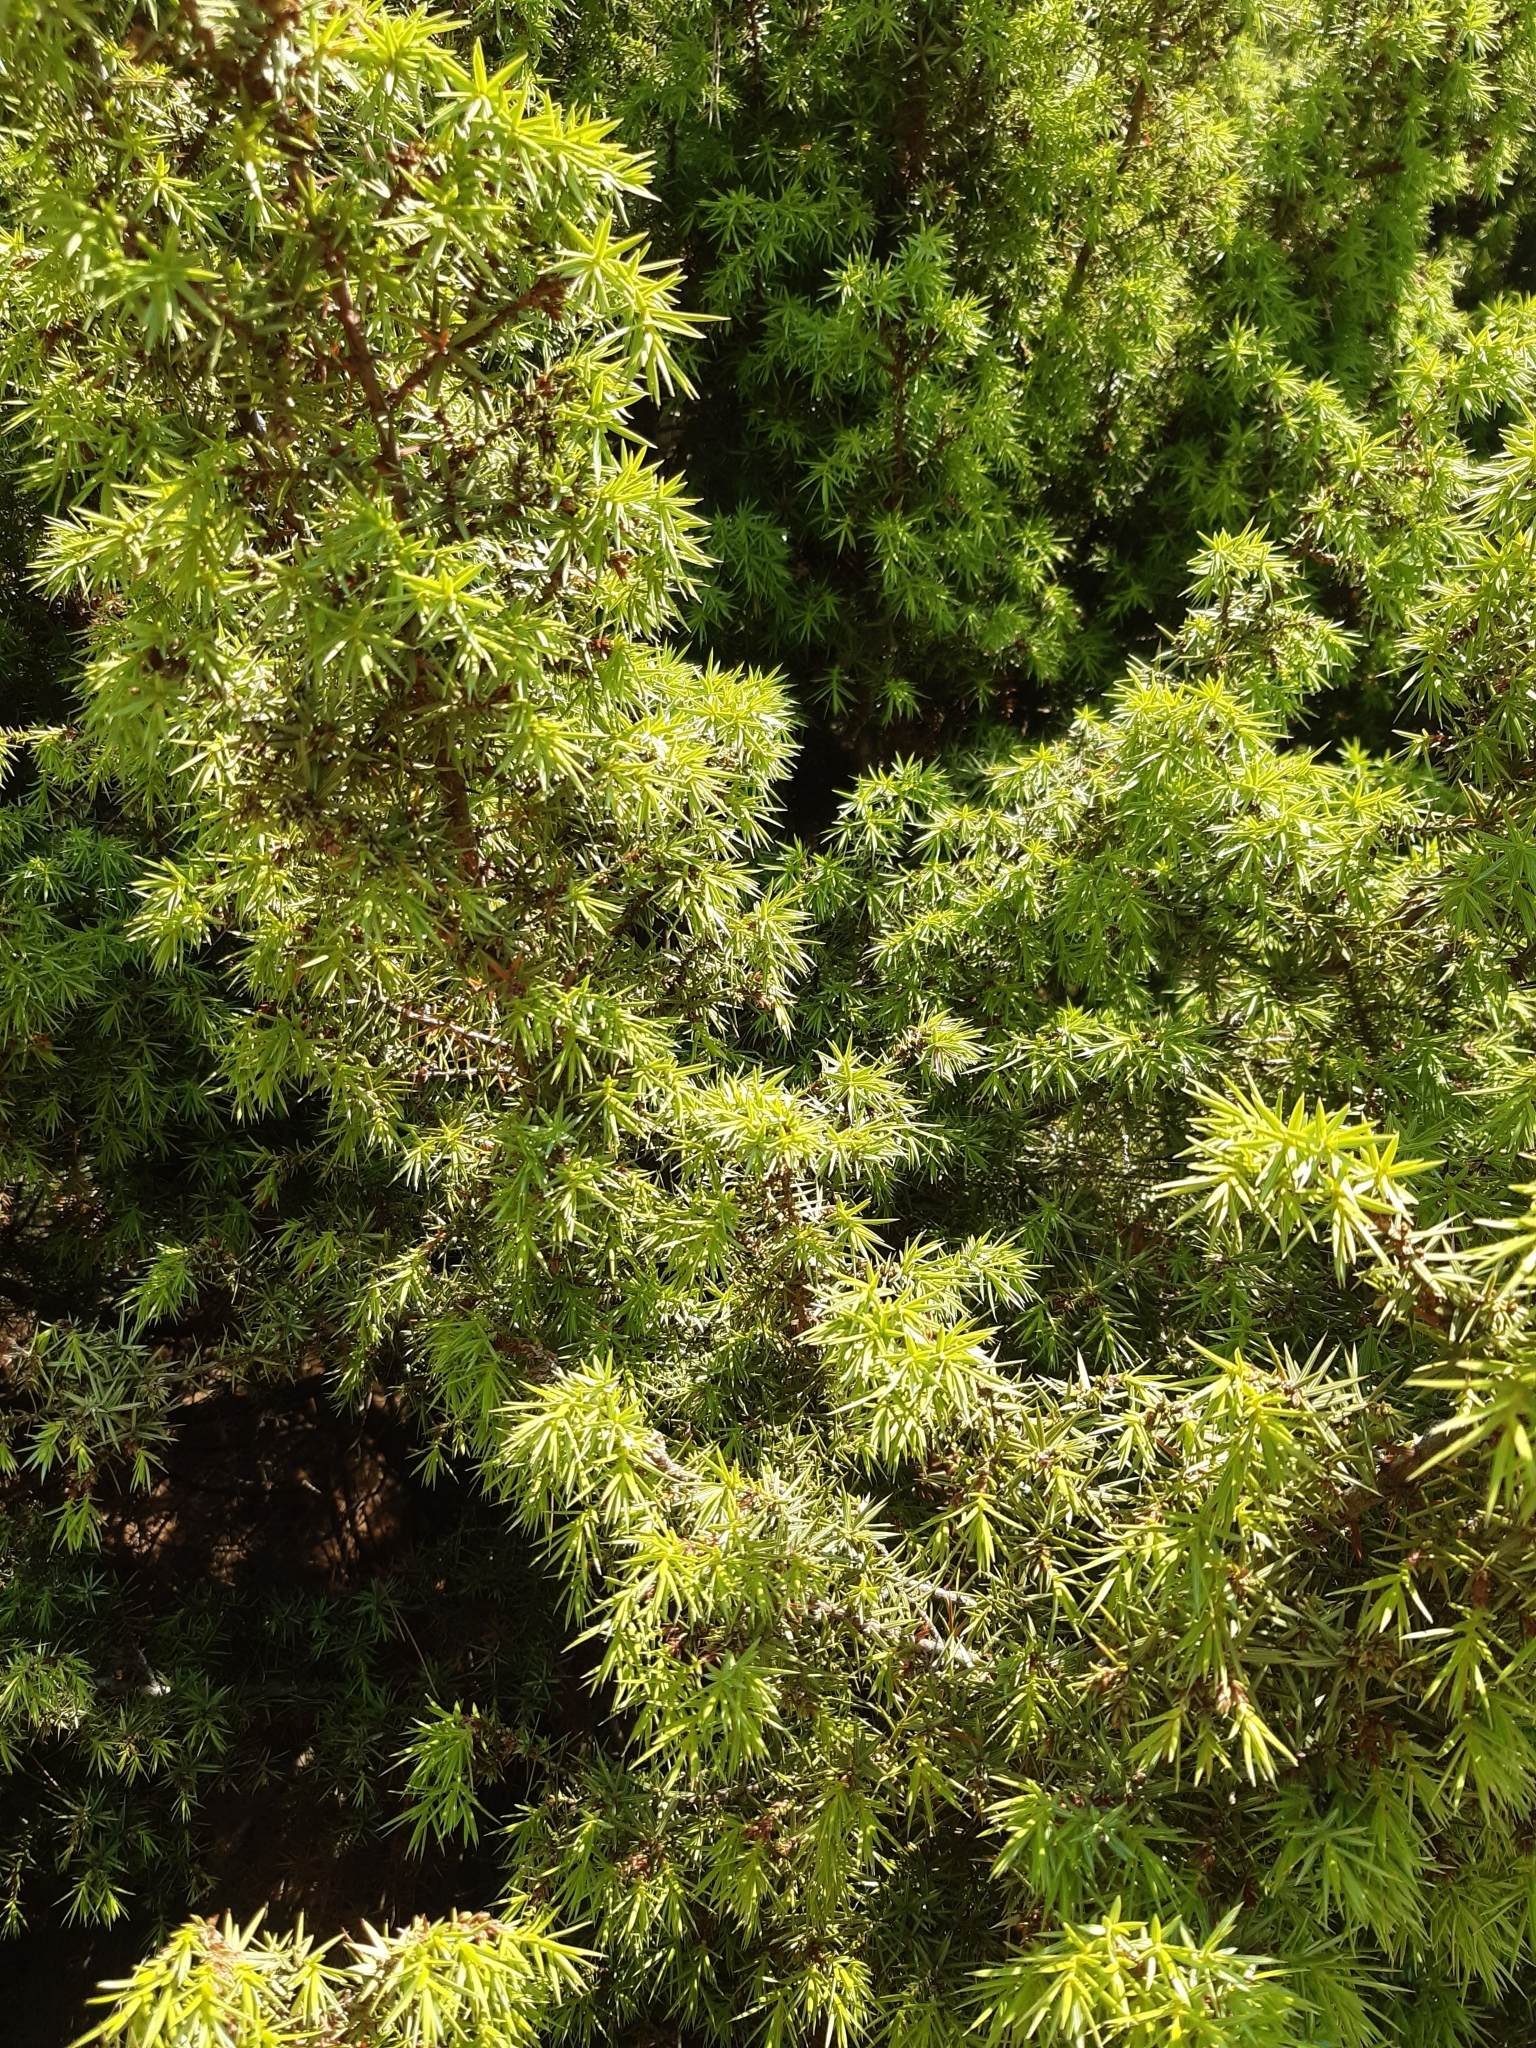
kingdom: Plantae
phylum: Tracheophyta
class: Pinopsida
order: Pinales
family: Cupressaceae
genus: Juniperus
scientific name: Juniperus oxycedrus
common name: Prickly juniper
